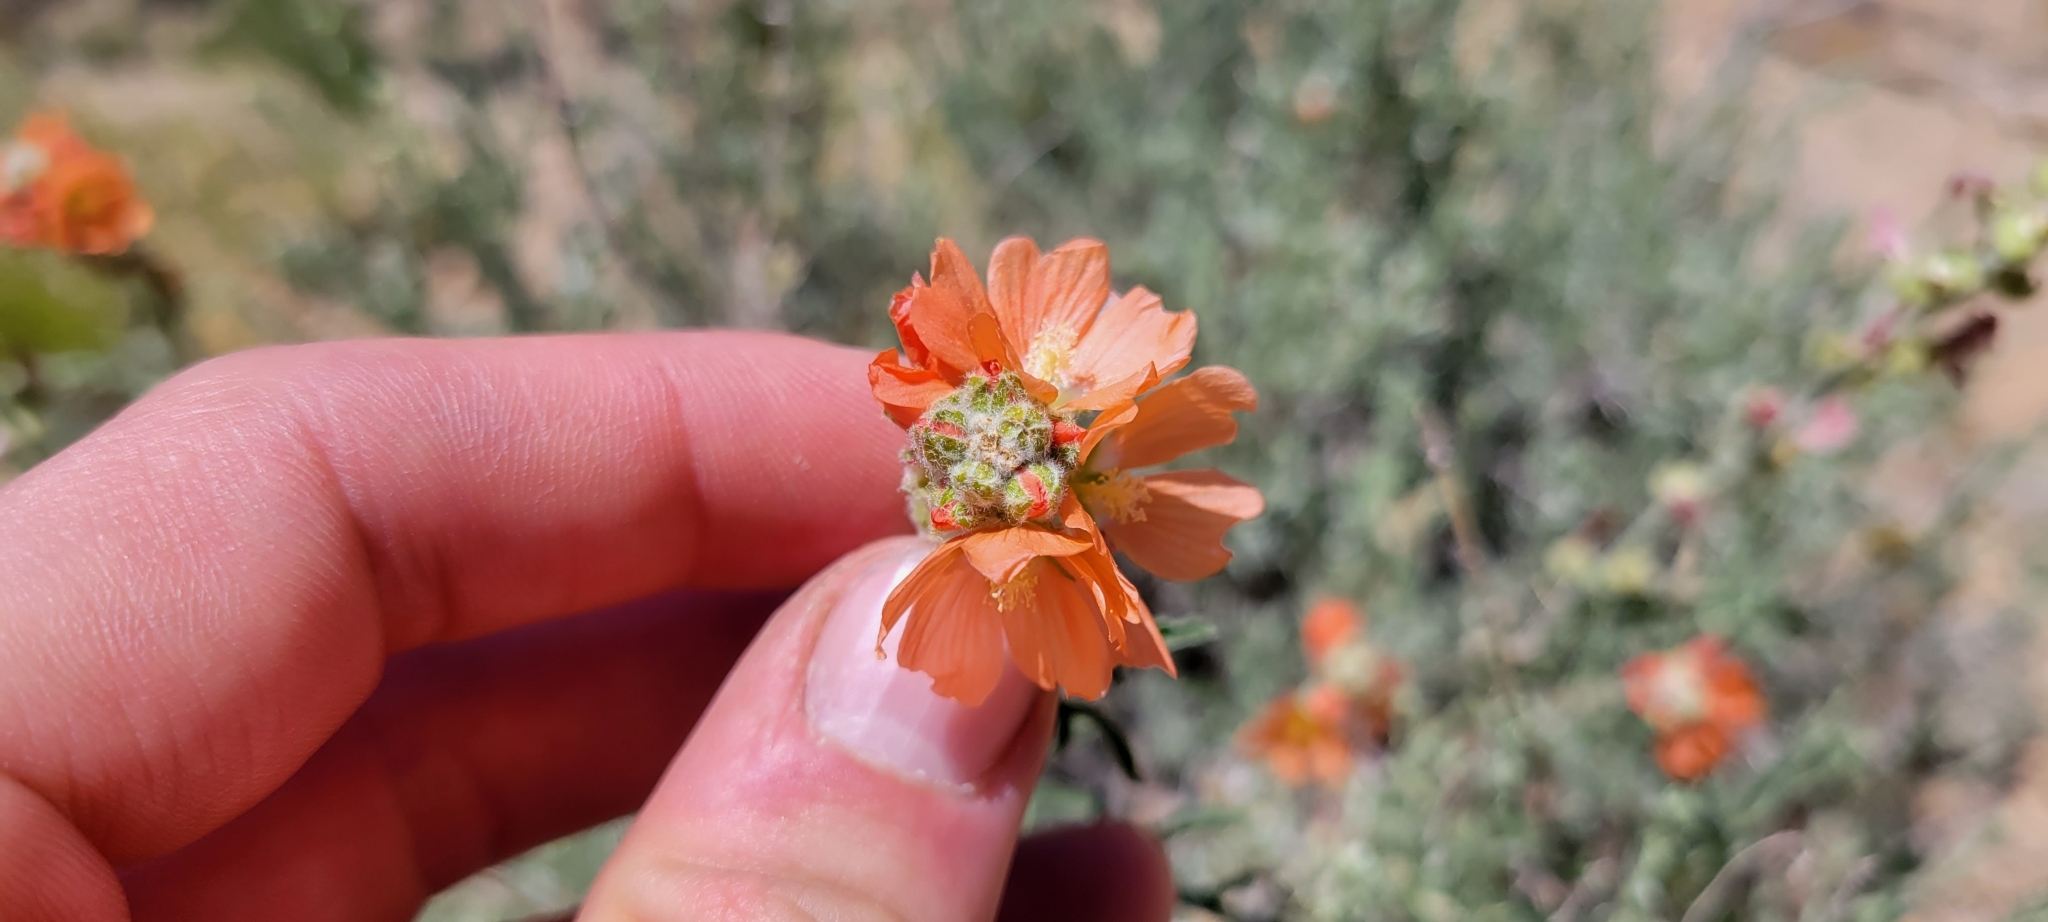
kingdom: Plantae
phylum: Tracheophyta
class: Magnoliopsida
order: Malvales
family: Malvaceae
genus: Sphaeralcea
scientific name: Sphaeralcea coccinea
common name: Moss-rose
